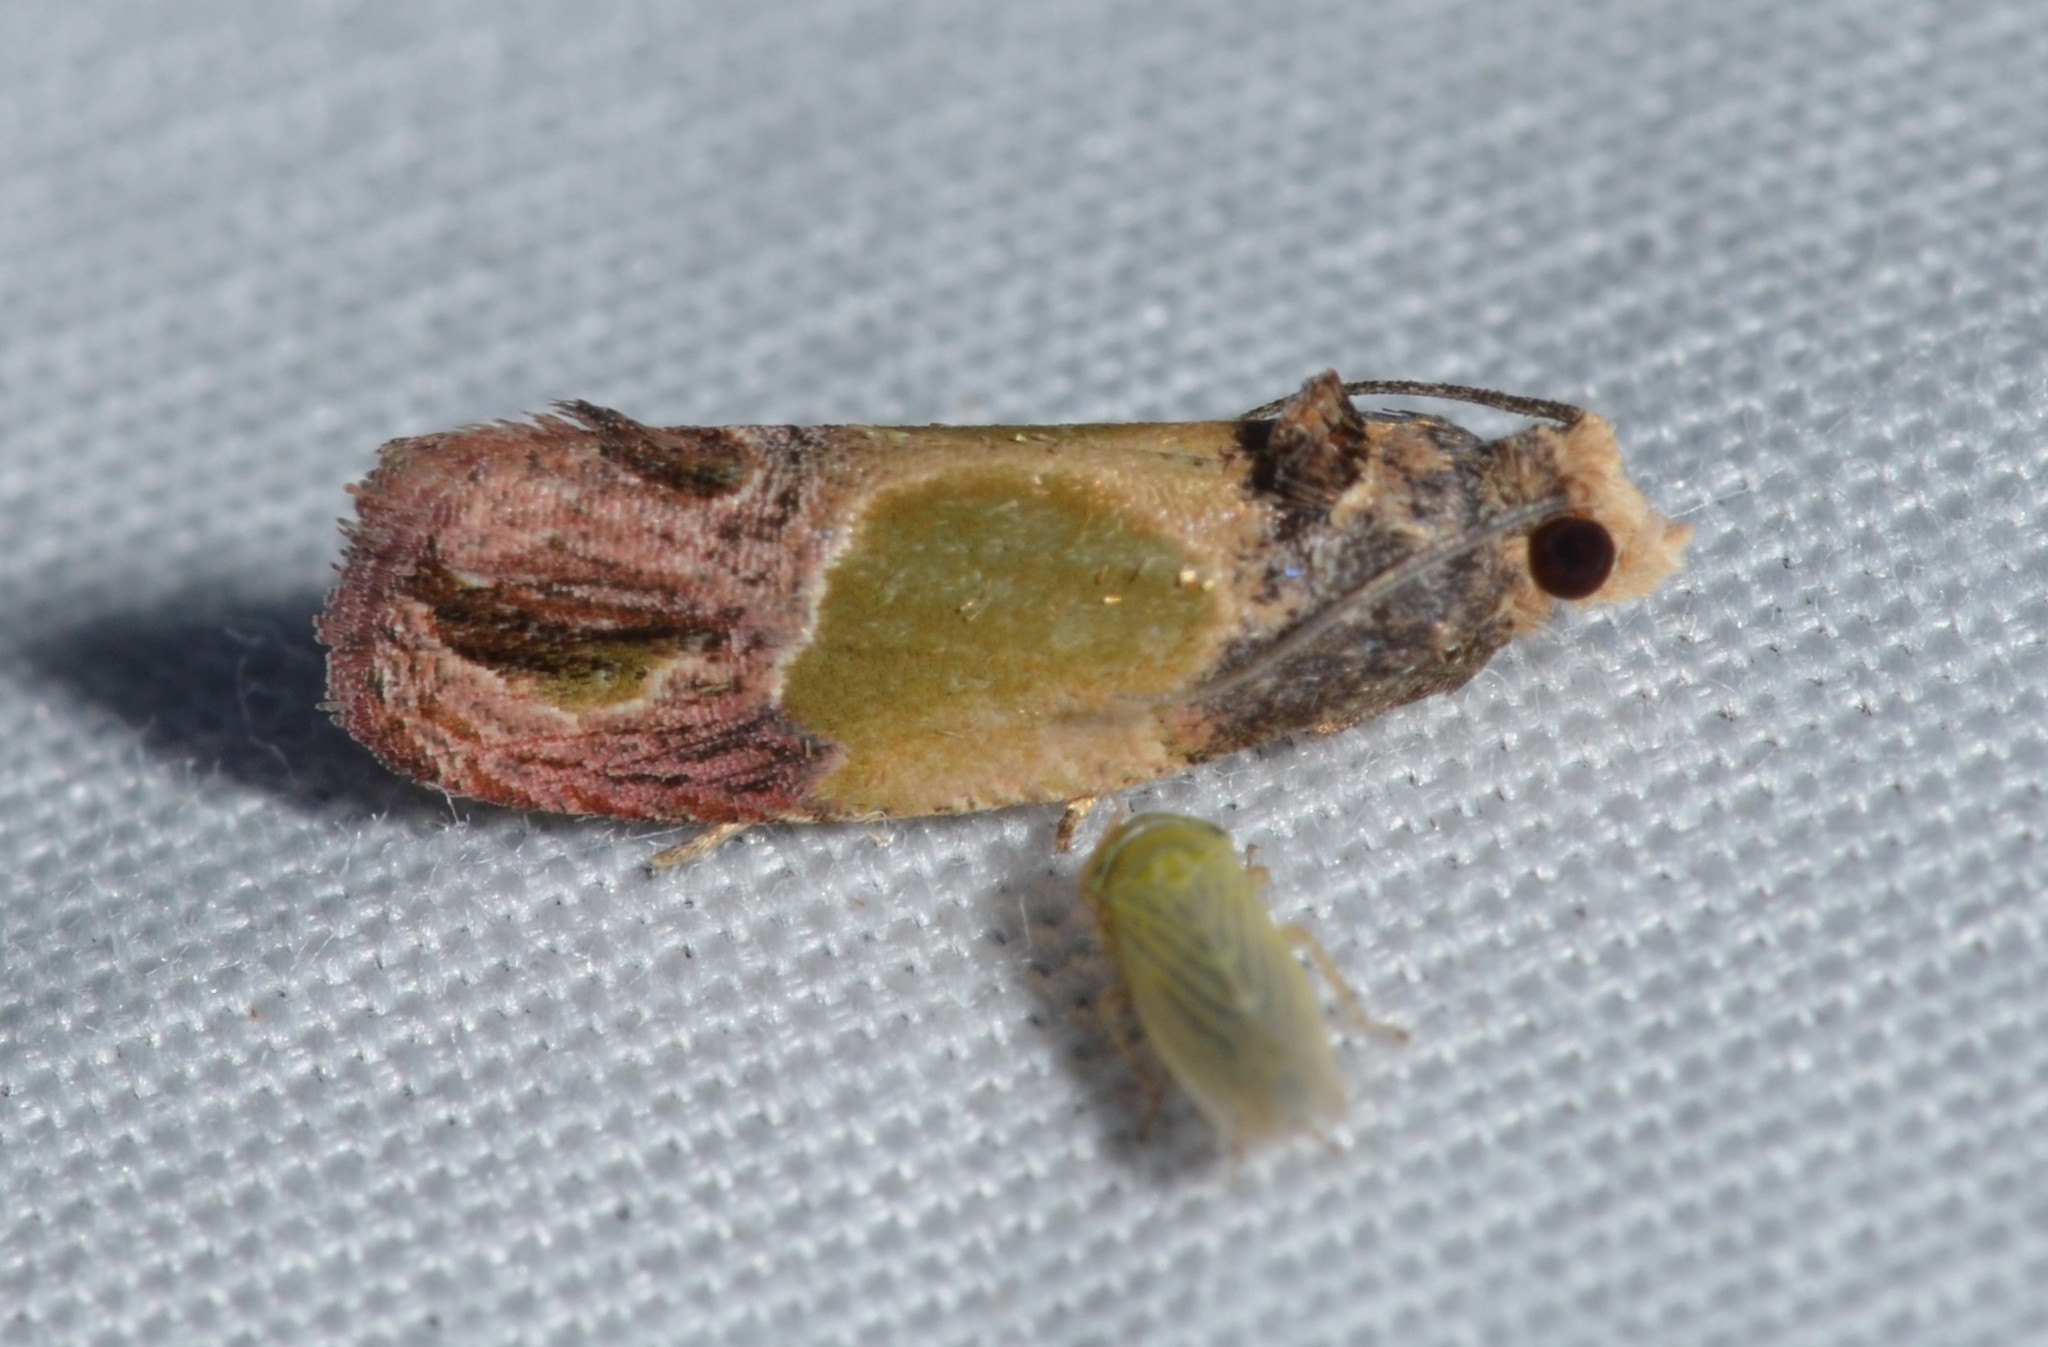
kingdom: Animalia
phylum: Arthropoda
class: Insecta
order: Lepidoptera
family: Tortricidae
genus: Eumarozia
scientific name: Eumarozia malachitana
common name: Sculptured moth
